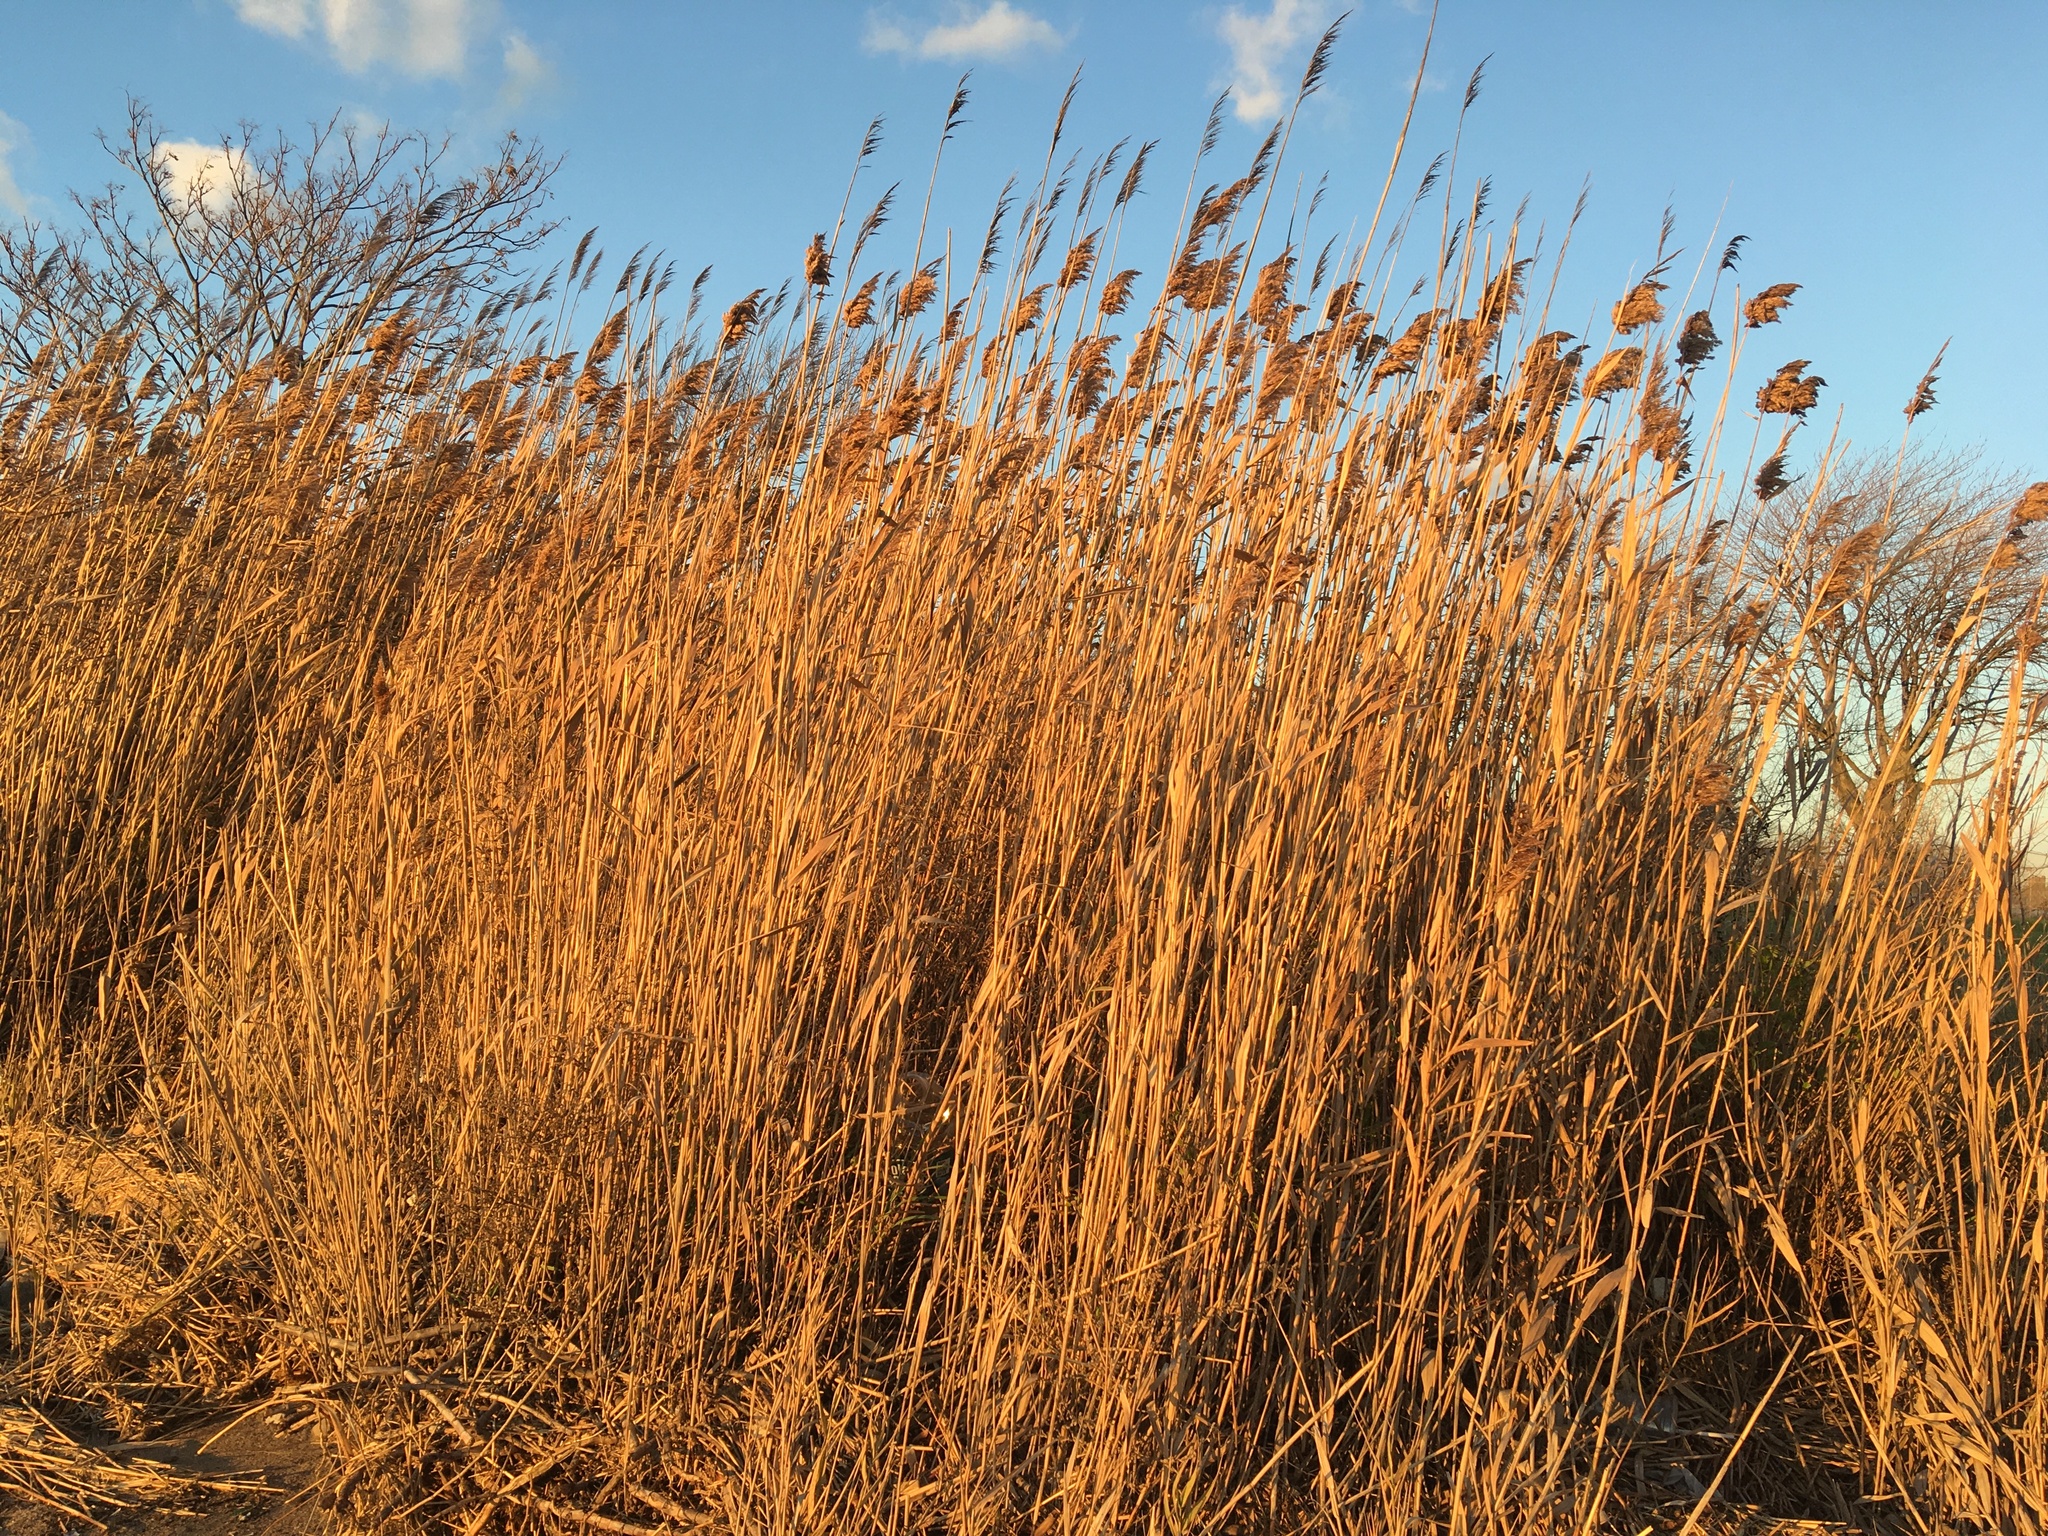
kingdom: Plantae
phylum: Tracheophyta
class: Liliopsida
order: Poales
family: Poaceae
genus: Phragmites
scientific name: Phragmites australis
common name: Common reed
